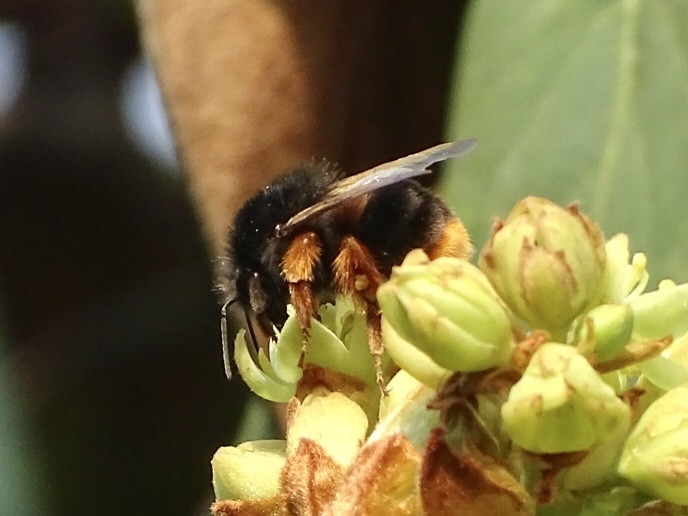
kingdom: Animalia
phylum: Arthropoda
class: Insecta
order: Hymenoptera
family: Apidae
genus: Bombus
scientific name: Bombus eximius
